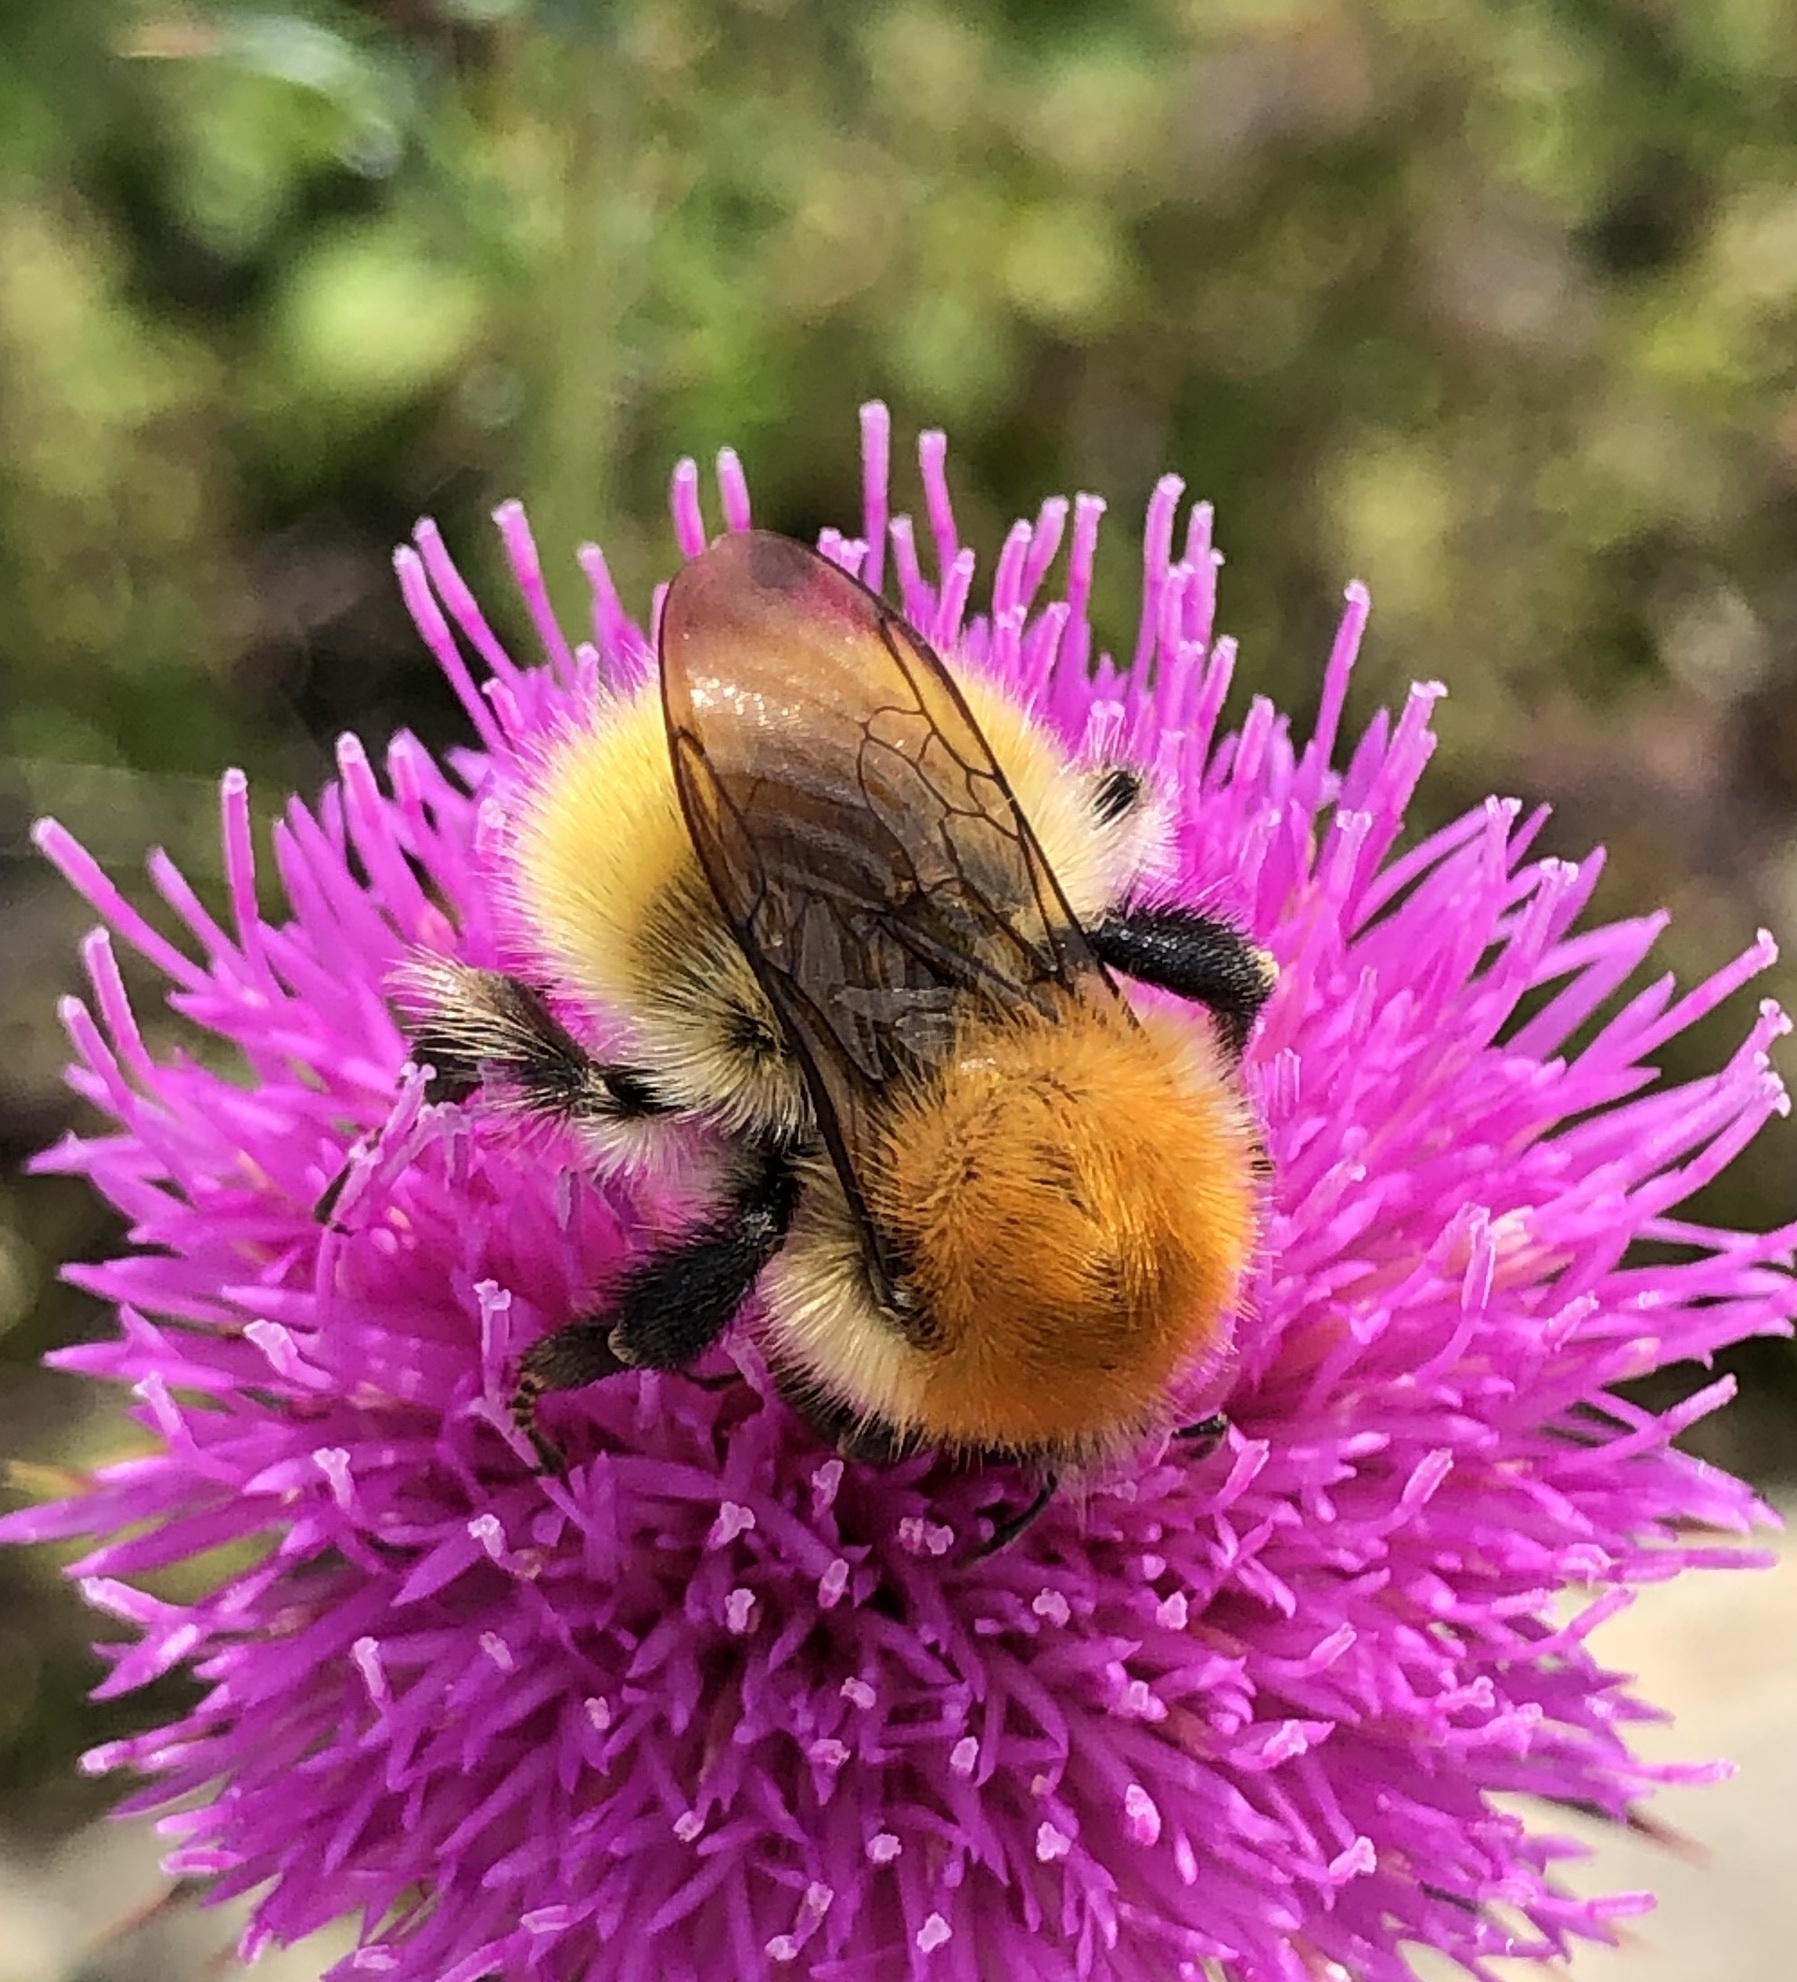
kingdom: Animalia
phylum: Arthropoda
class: Insecta
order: Hymenoptera
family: Apidae
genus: Bombus
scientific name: Bombus pascuorum
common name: Common carder bee
